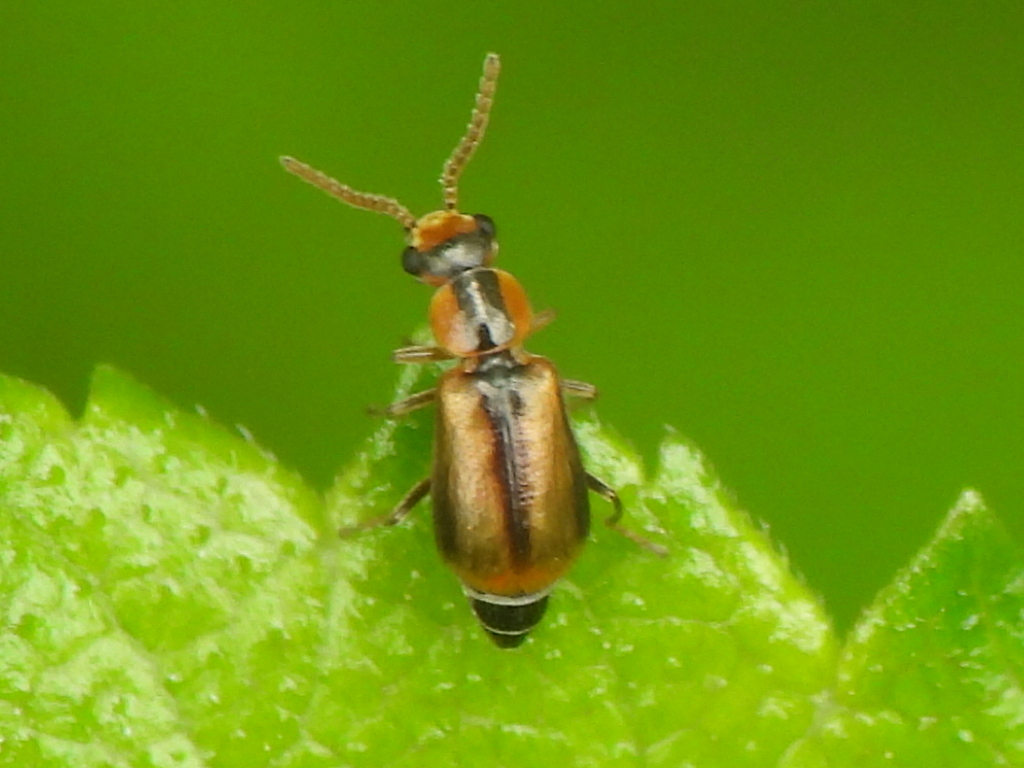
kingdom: Animalia
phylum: Arthropoda
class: Insecta
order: Coleoptera
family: Malachiidae
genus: Attalus
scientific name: Attalus
